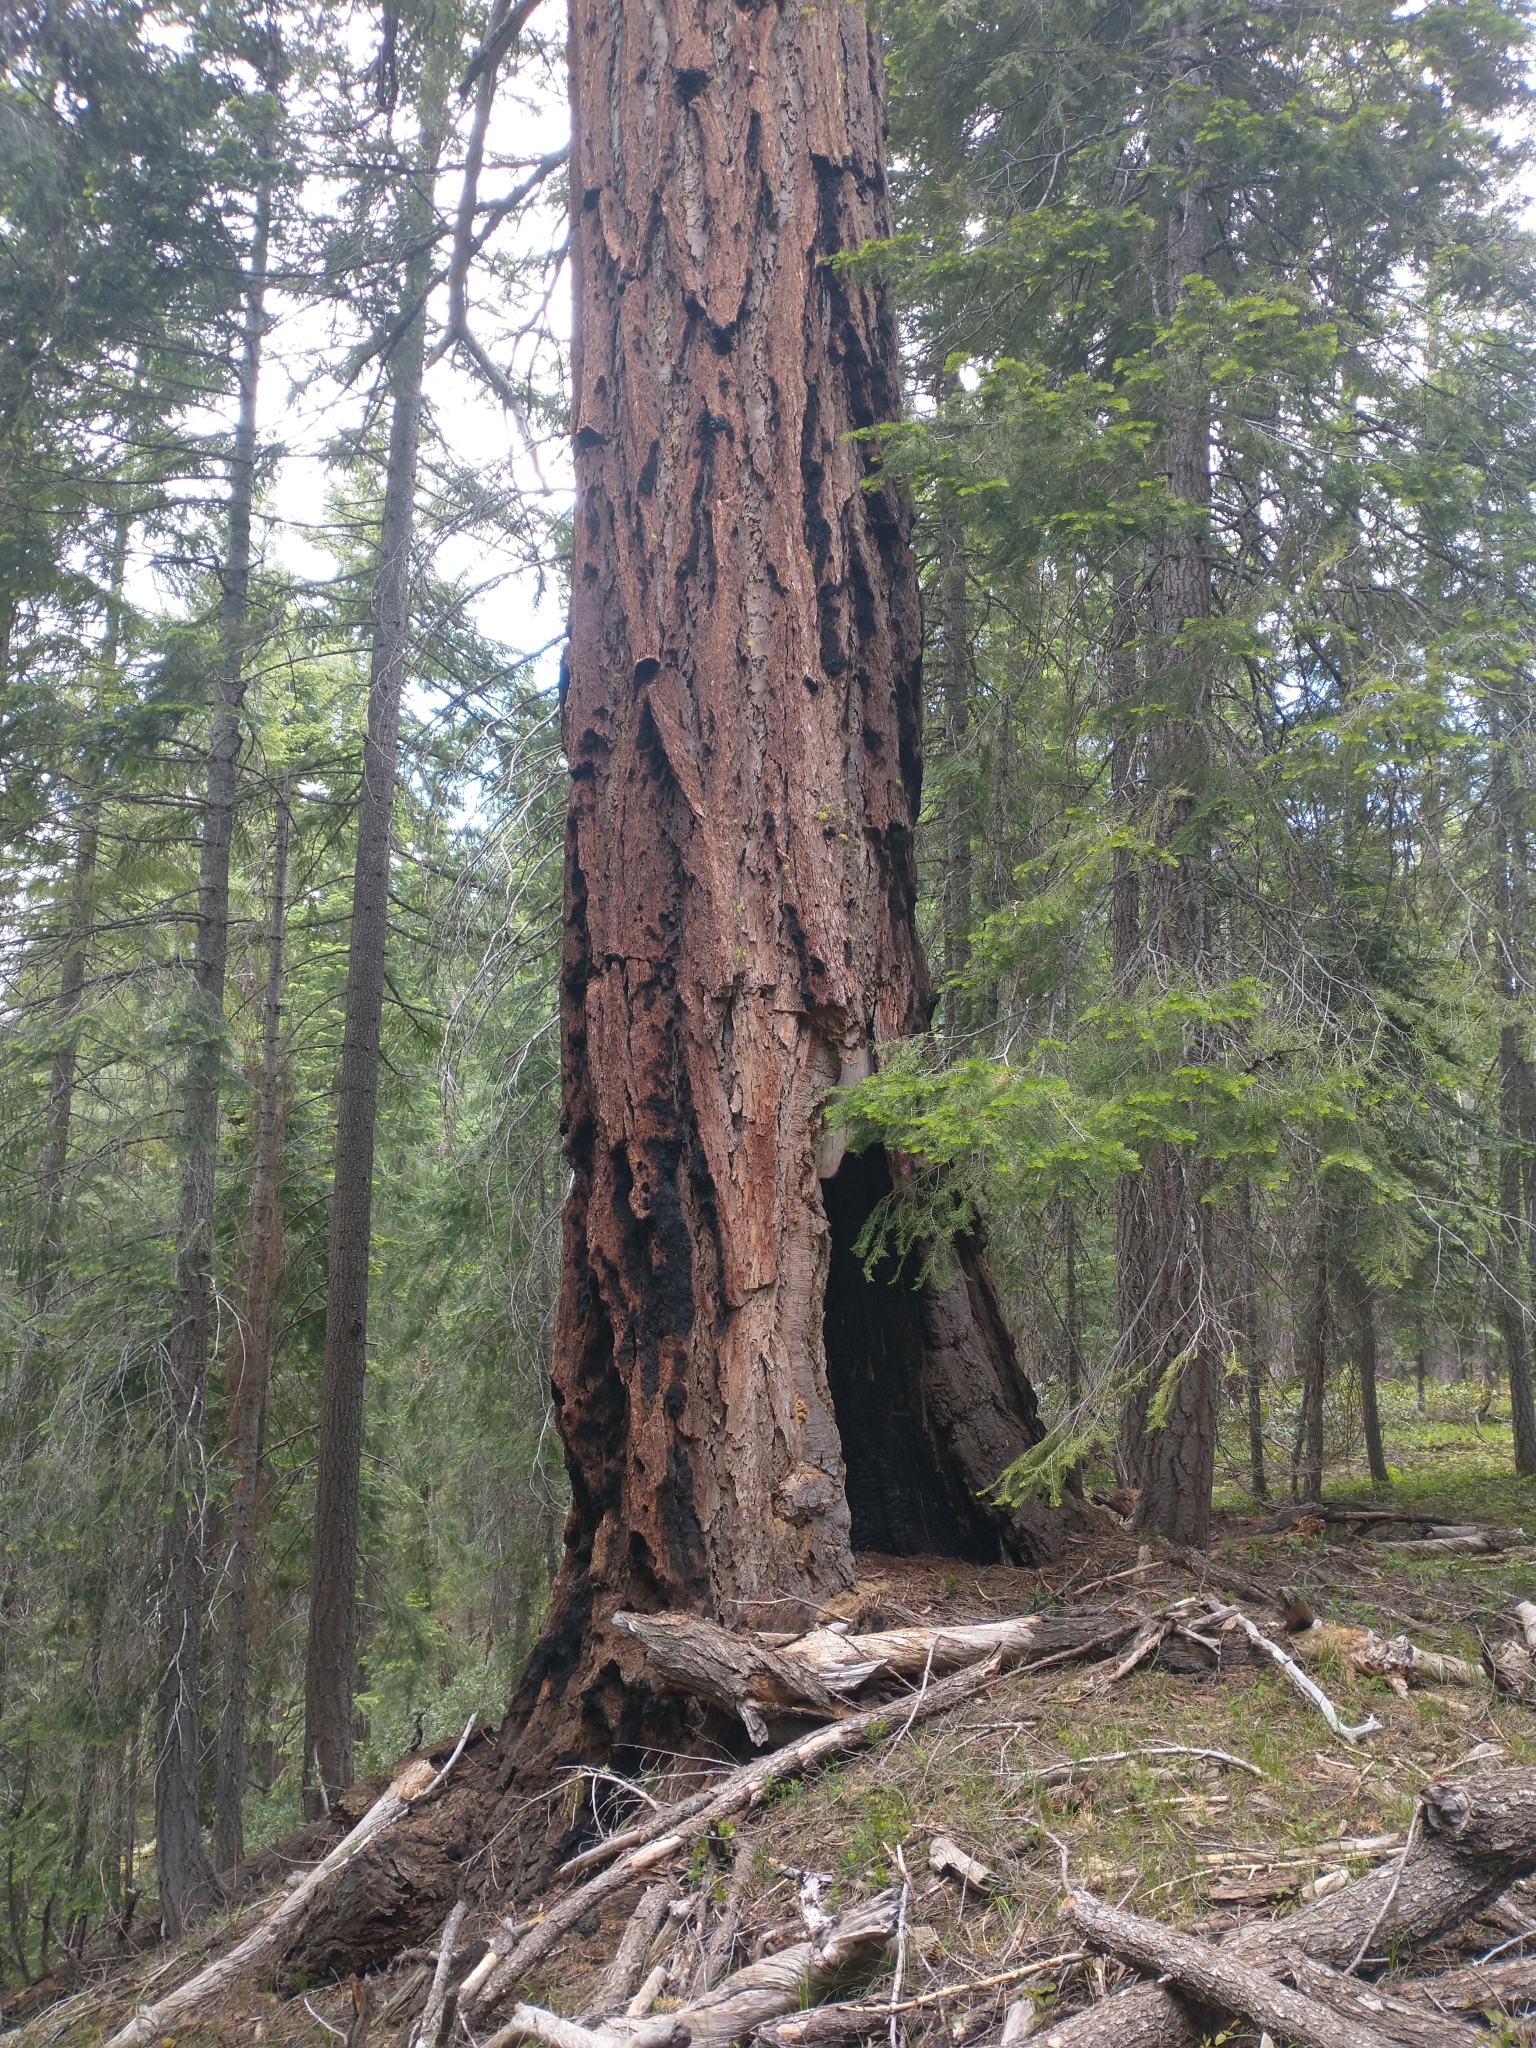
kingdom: Plantae
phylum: Tracheophyta
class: Pinopsida
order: Pinales
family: Pinaceae
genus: Pseudotsuga
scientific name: Pseudotsuga menziesii
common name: Douglas fir
